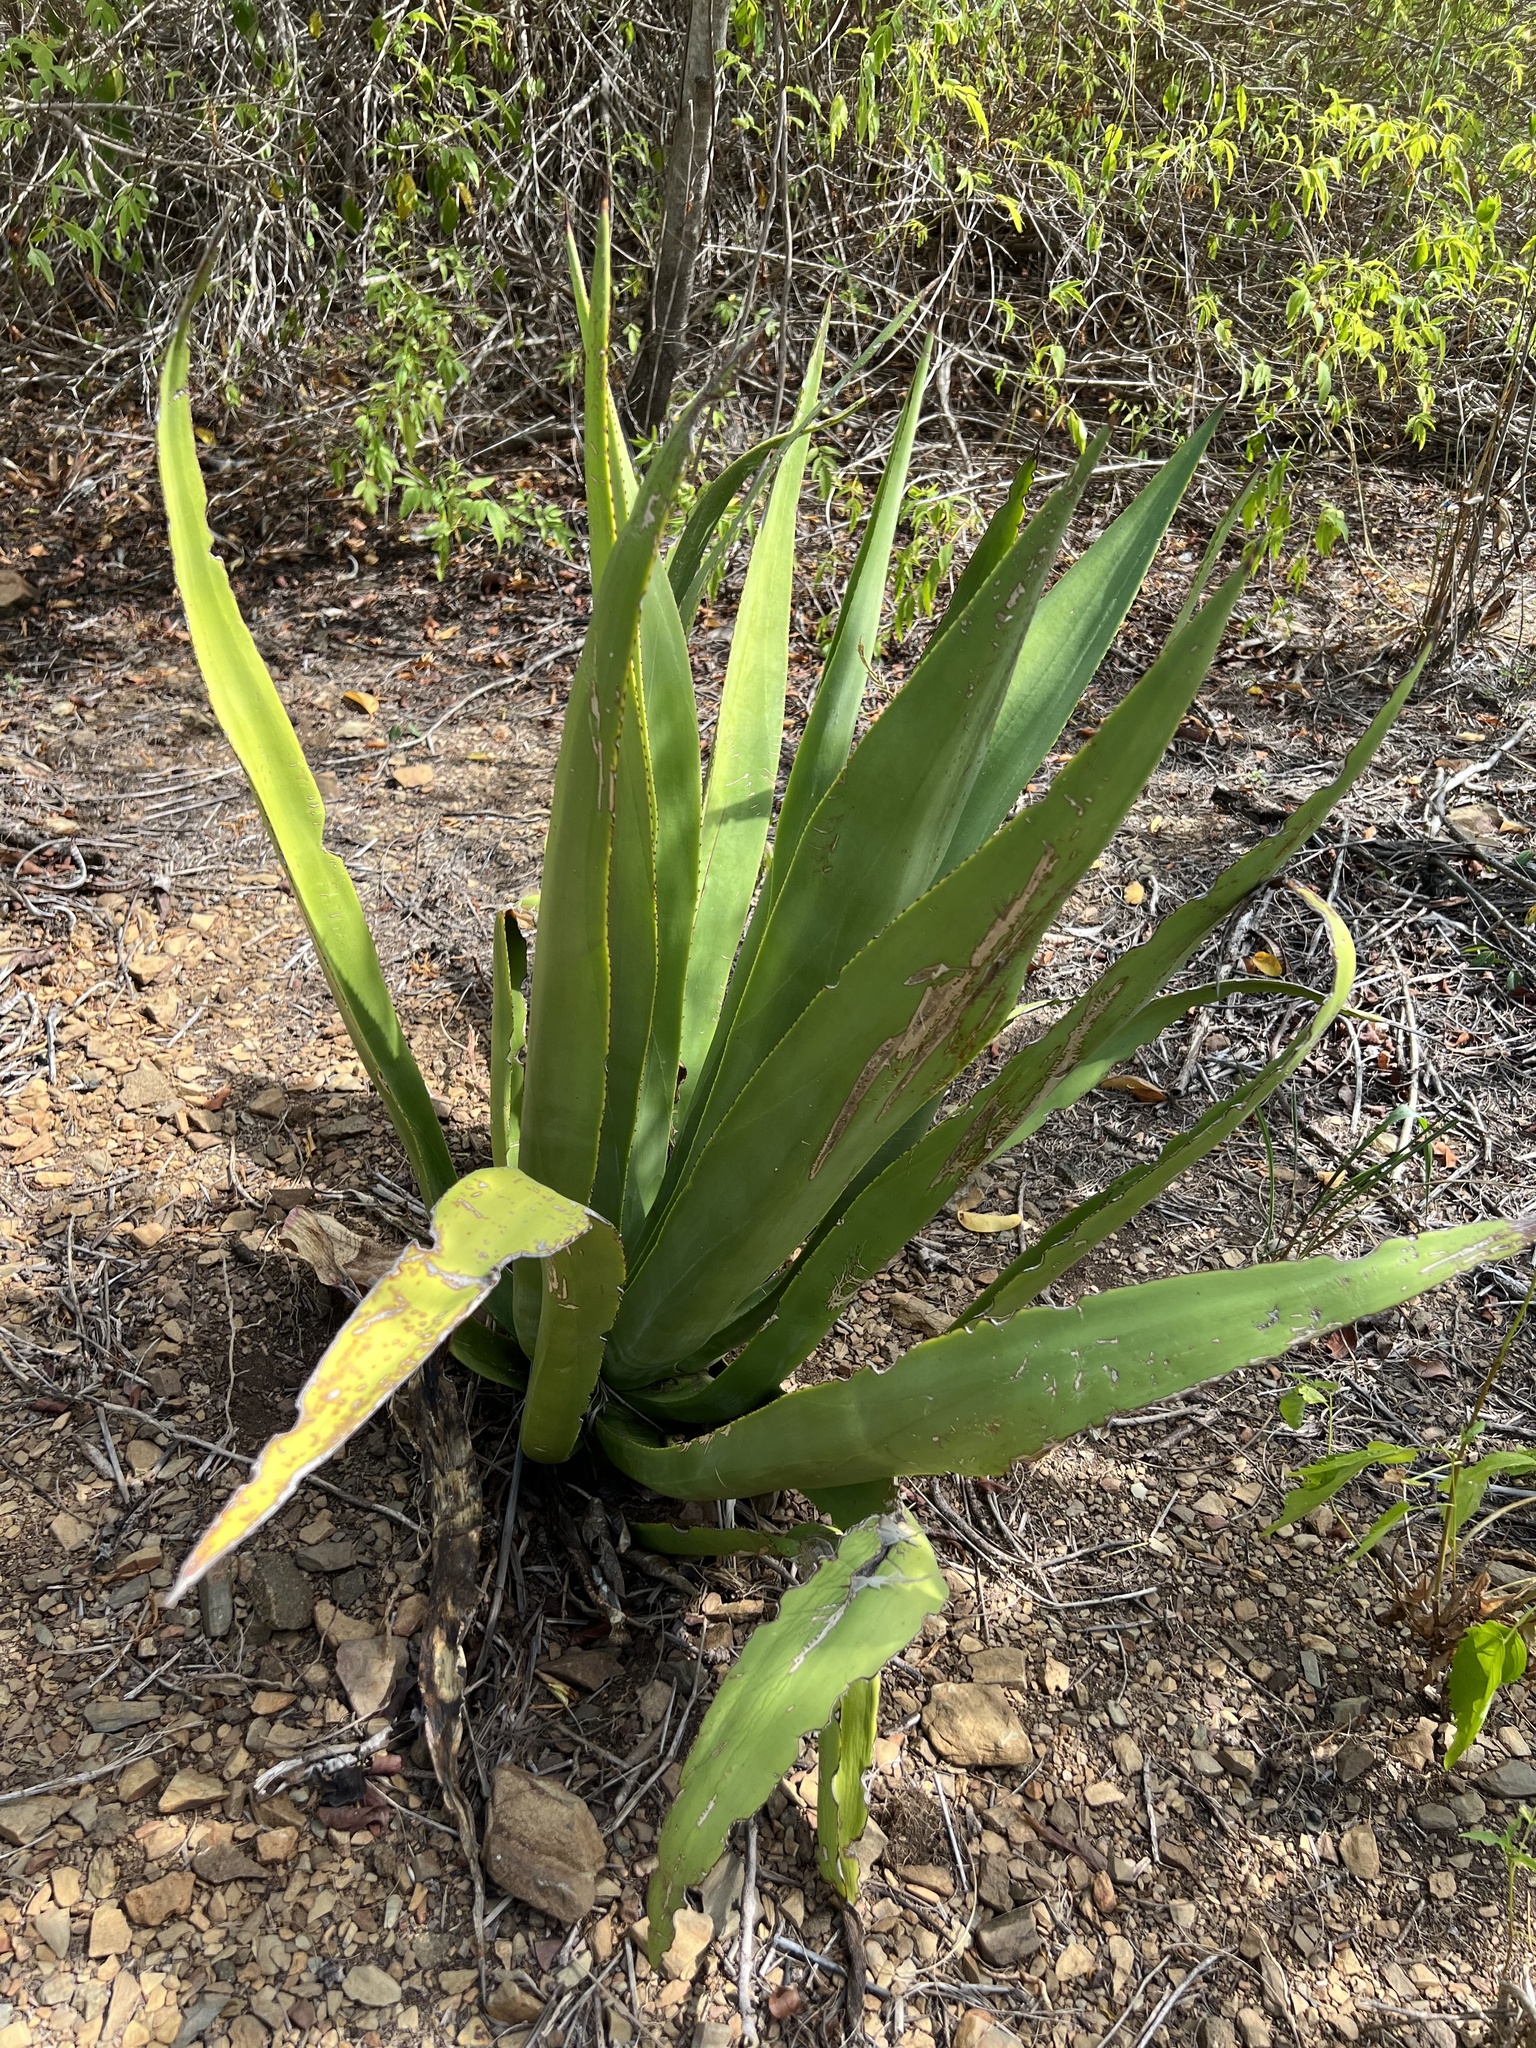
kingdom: Plantae
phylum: Tracheophyta
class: Liliopsida
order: Asparagales
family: Asparagaceae
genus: Agave
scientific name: Agave eggersiana
